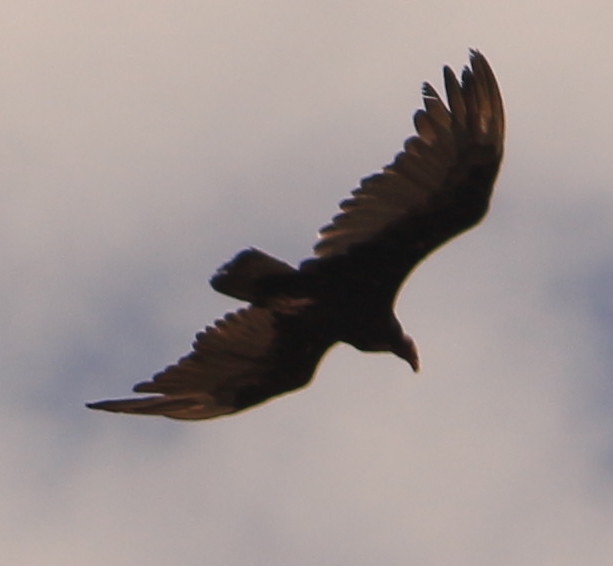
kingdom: Animalia
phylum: Chordata
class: Aves
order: Accipitriformes
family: Cathartidae
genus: Cathartes
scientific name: Cathartes aura
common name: Turkey vulture
